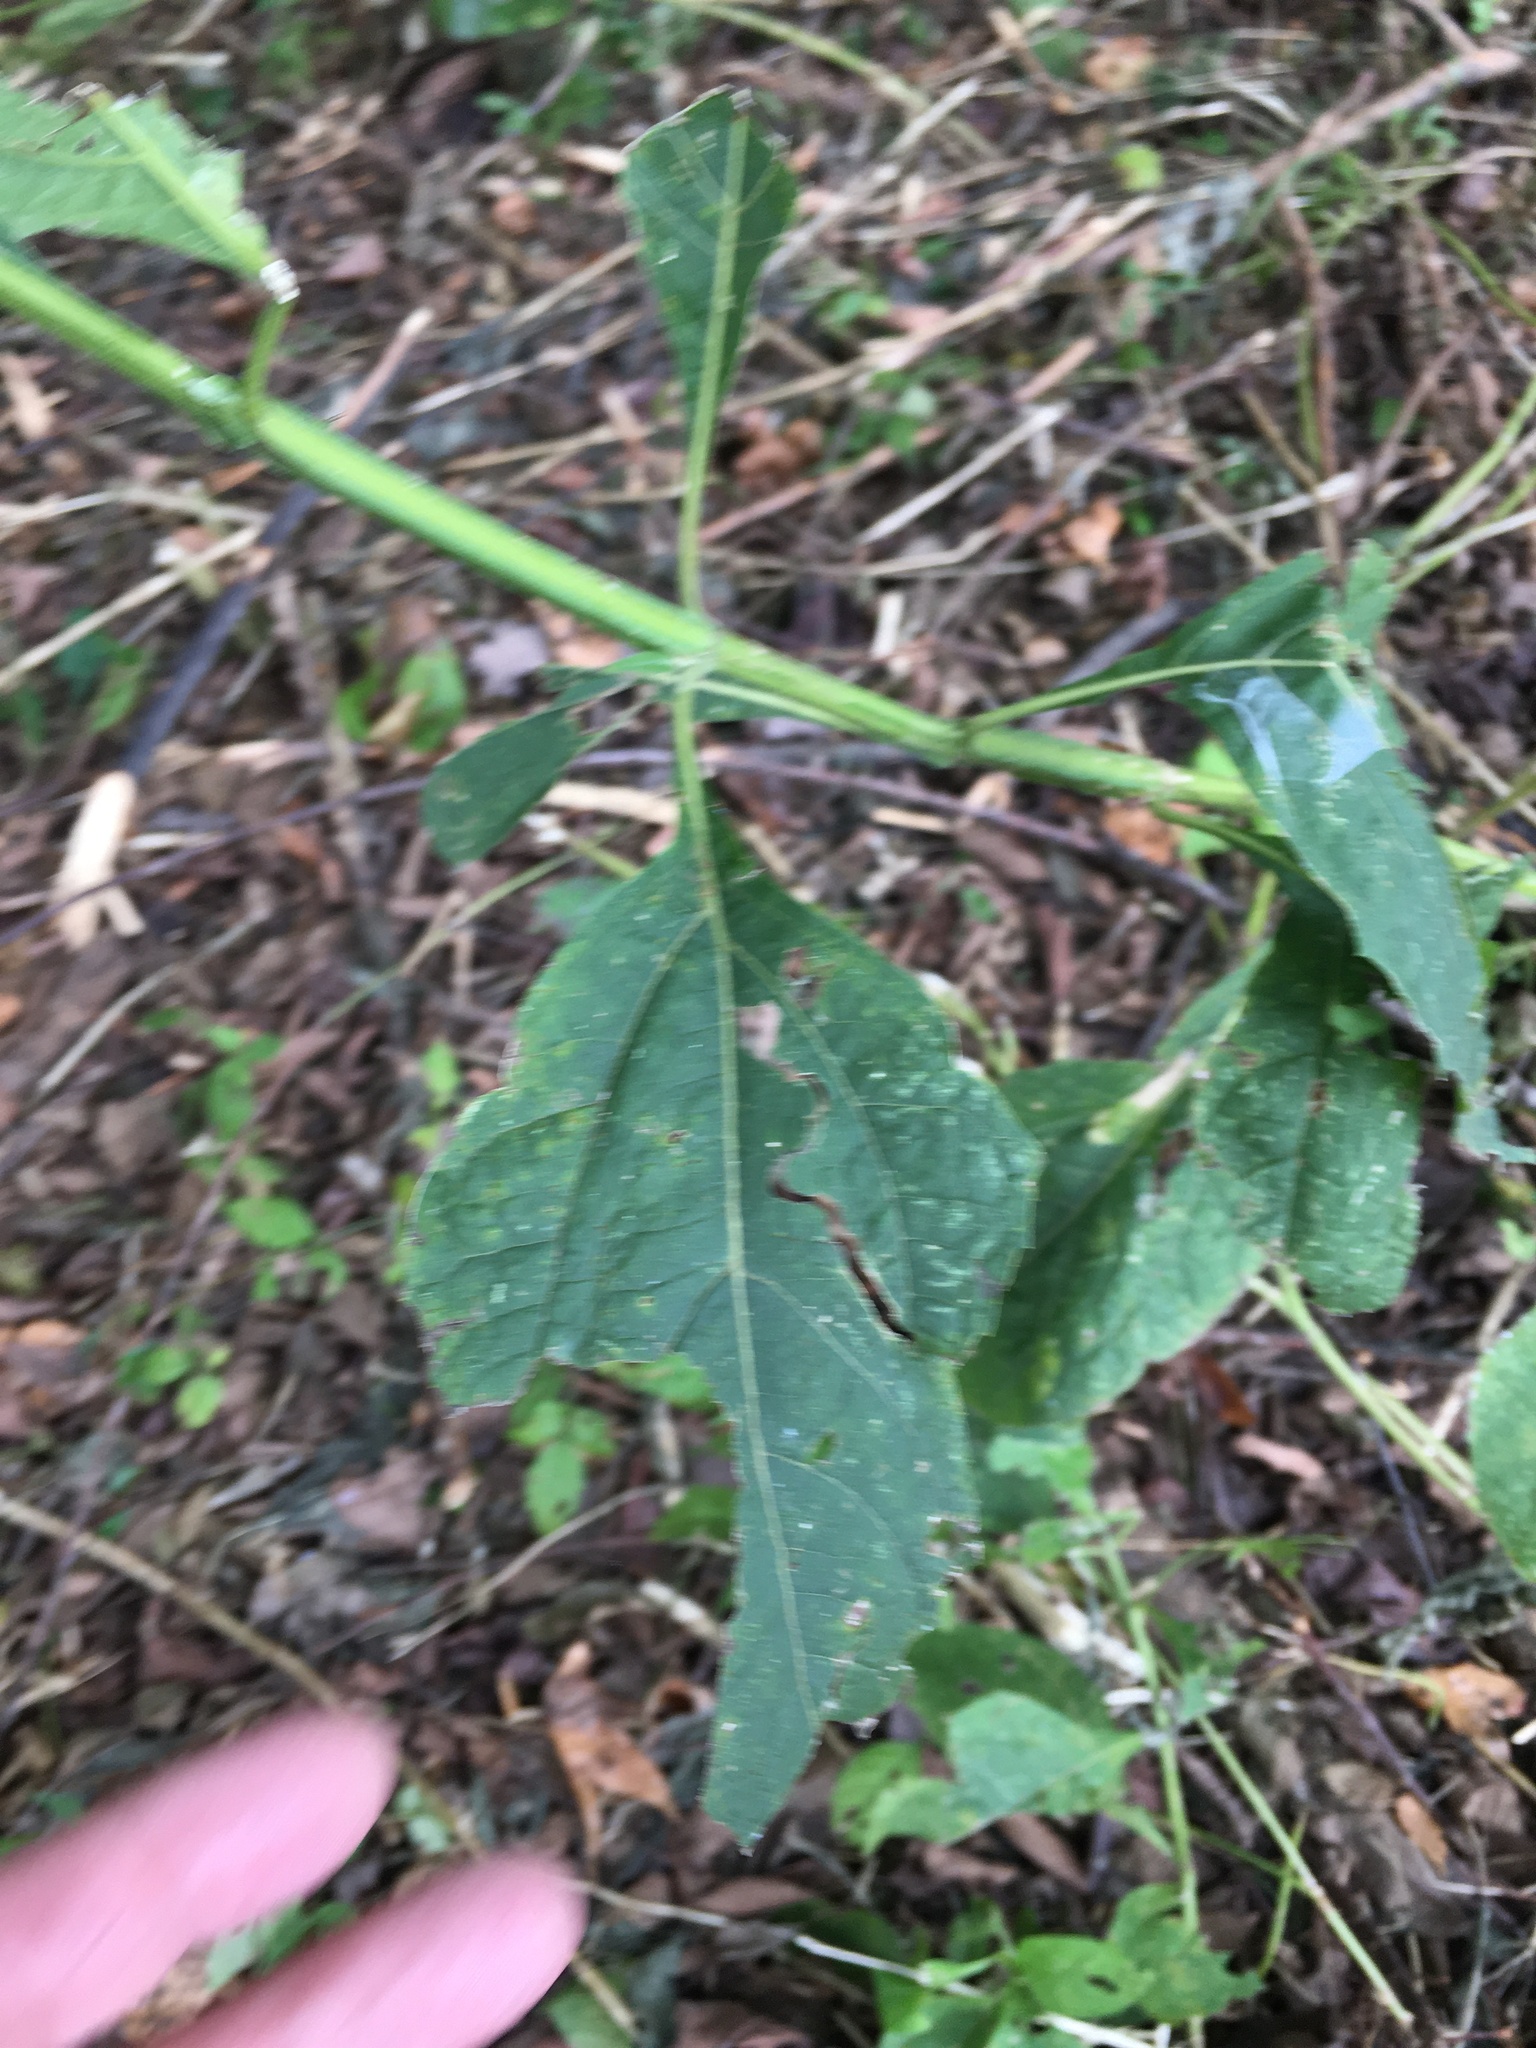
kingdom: Plantae
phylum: Tracheophyta
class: Magnoliopsida
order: Asterales
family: Asteraceae
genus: Verbesina
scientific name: Verbesina occidentalis
